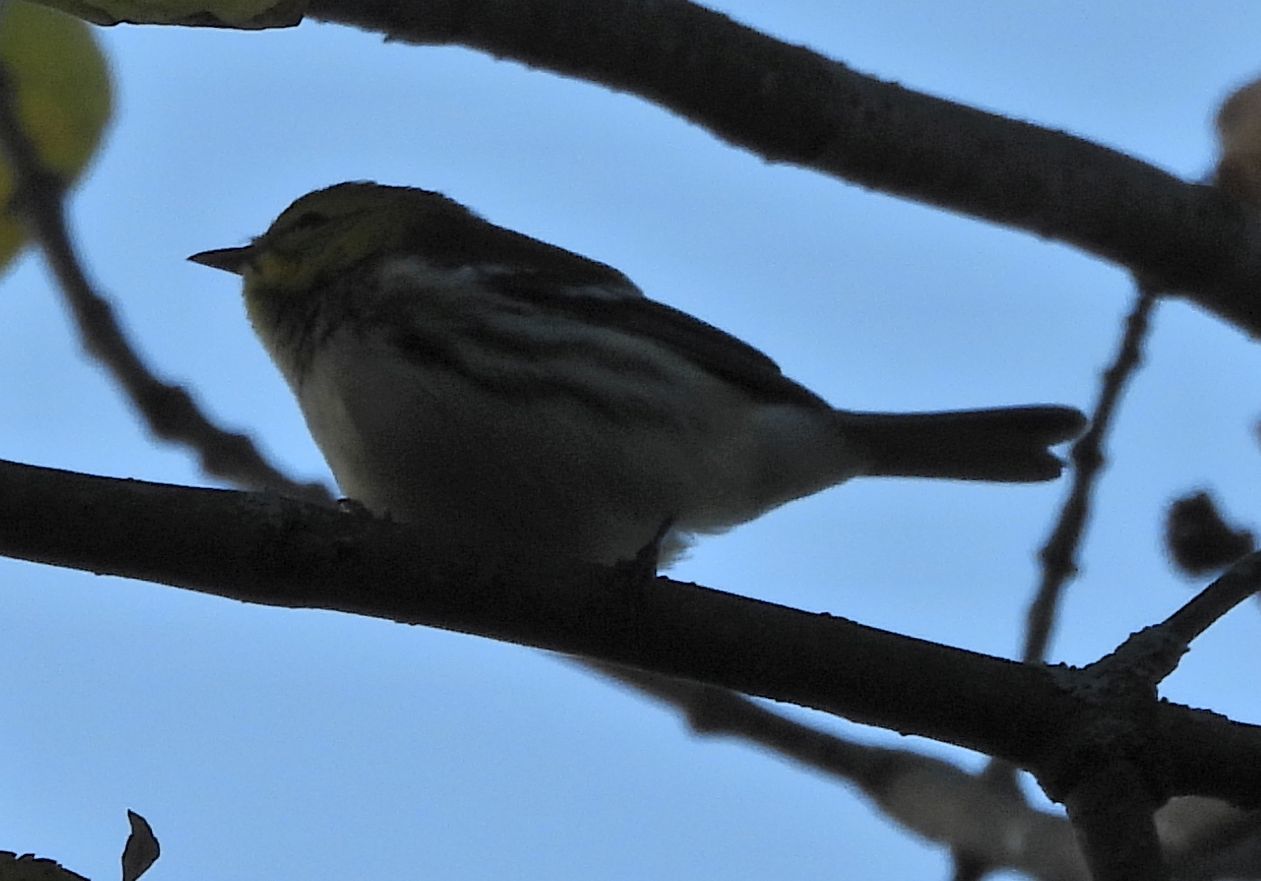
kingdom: Animalia
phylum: Chordata
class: Aves
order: Passeriformes
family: Parulidae
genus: Setophaga
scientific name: Setophaga virens
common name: Black-throated green warbler
